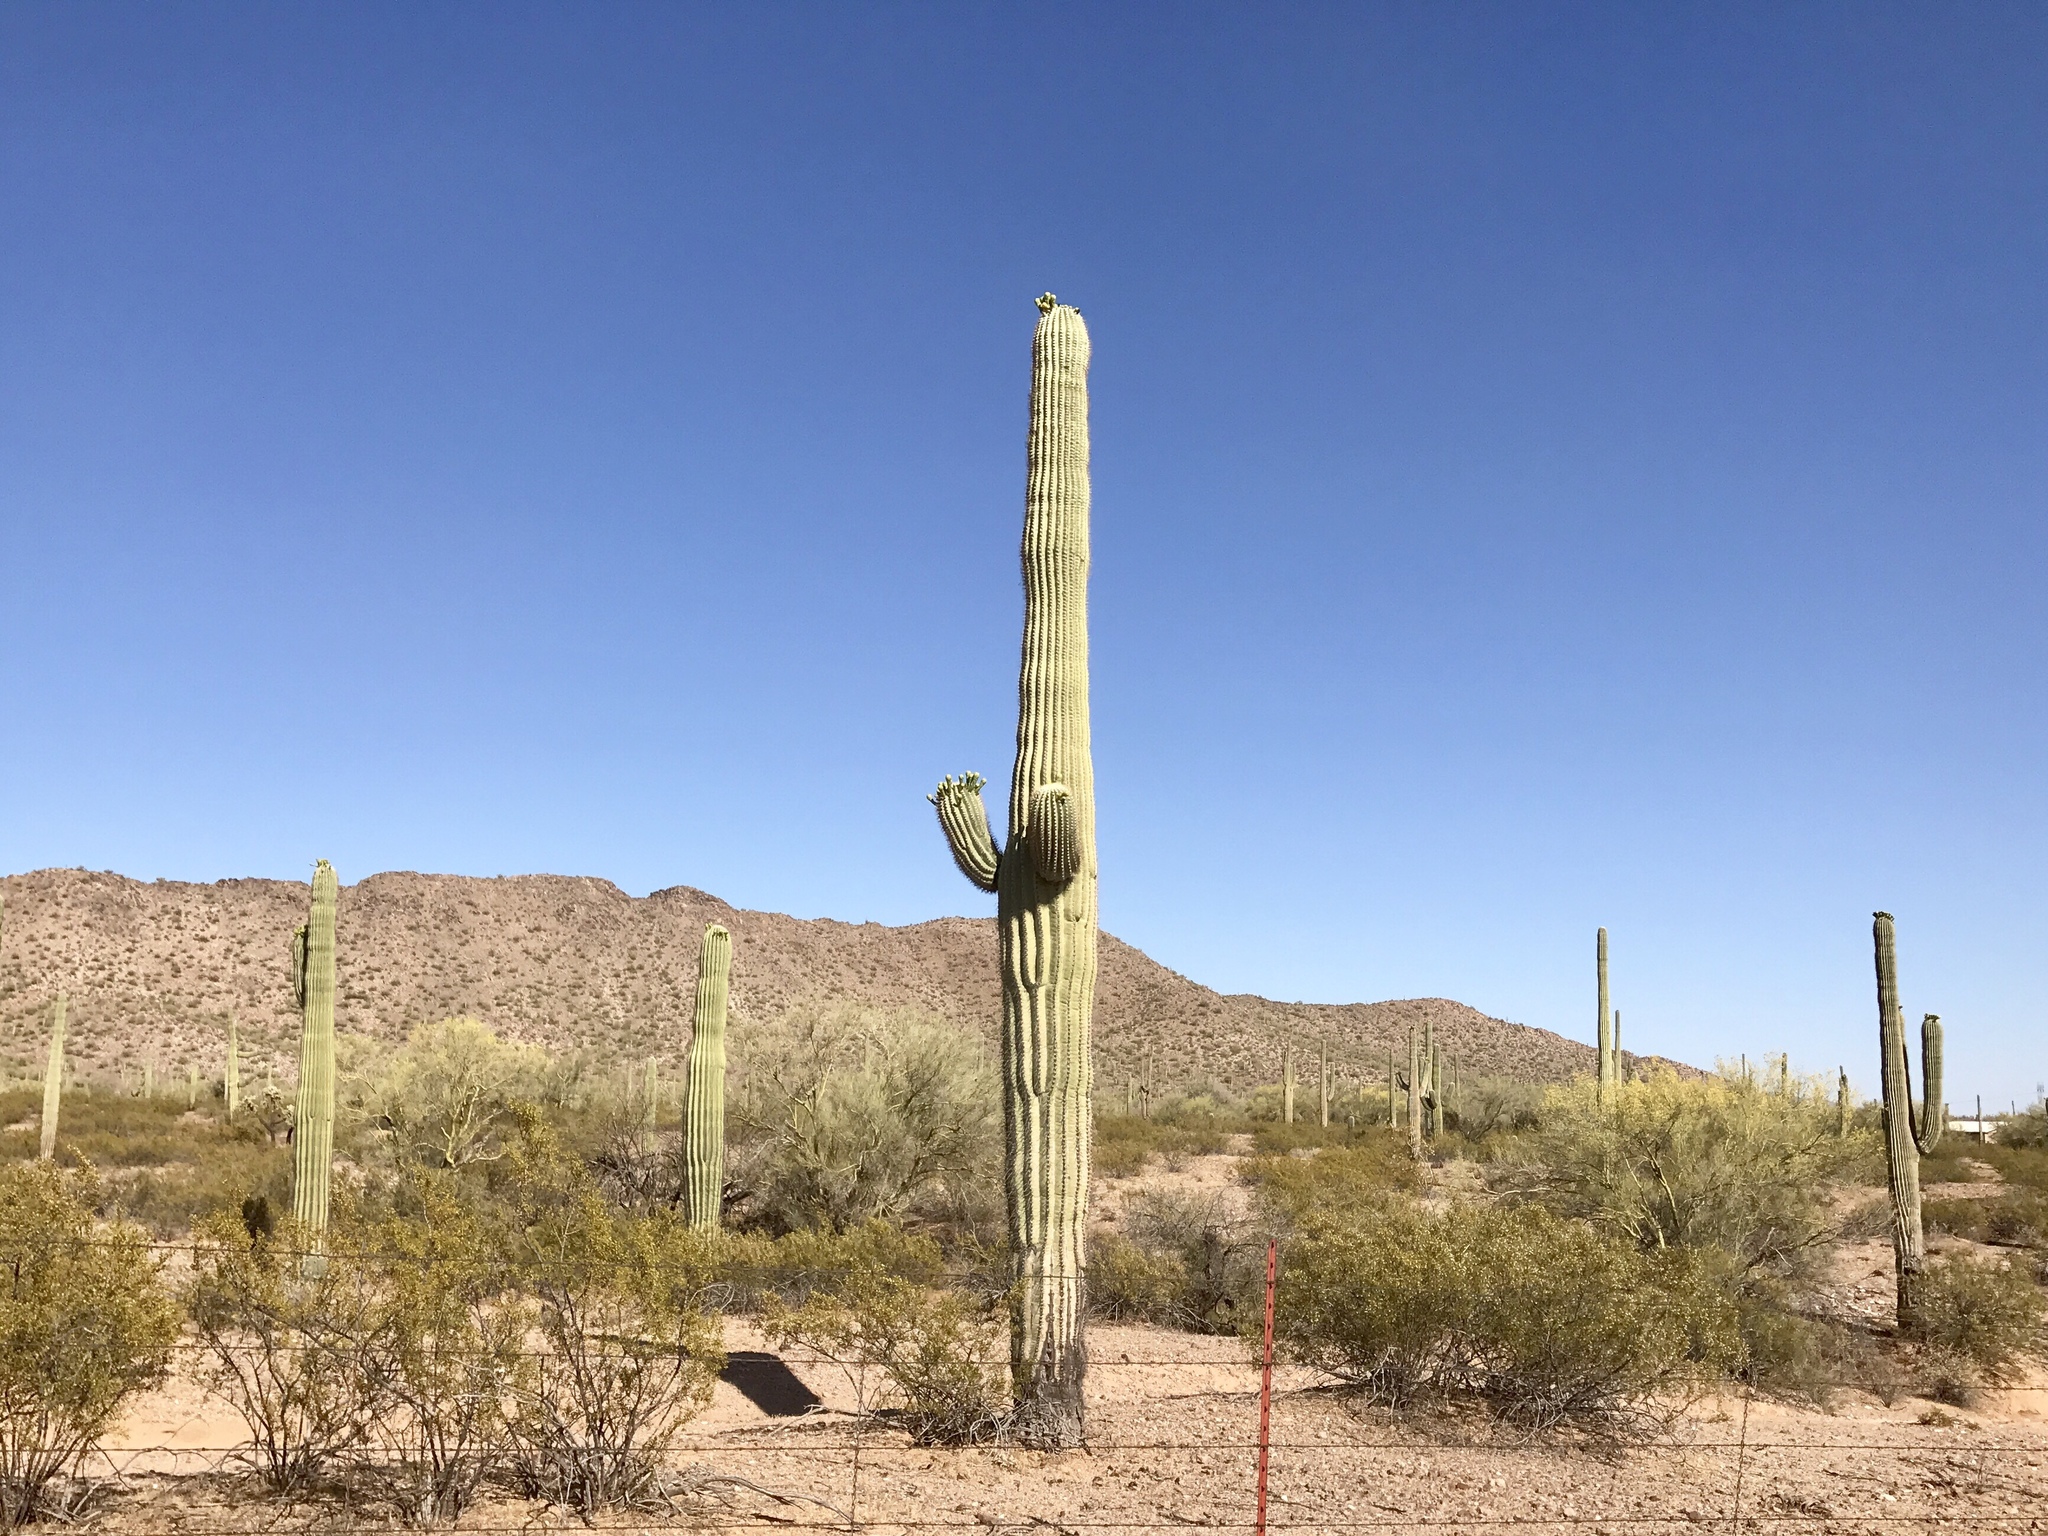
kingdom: Plantae
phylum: Tracheophyta
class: Magnoliopsida
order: Caryophyllales
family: Cactaceae
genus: Carnegiea
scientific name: Carnegiea gigantea
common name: Saguaro
